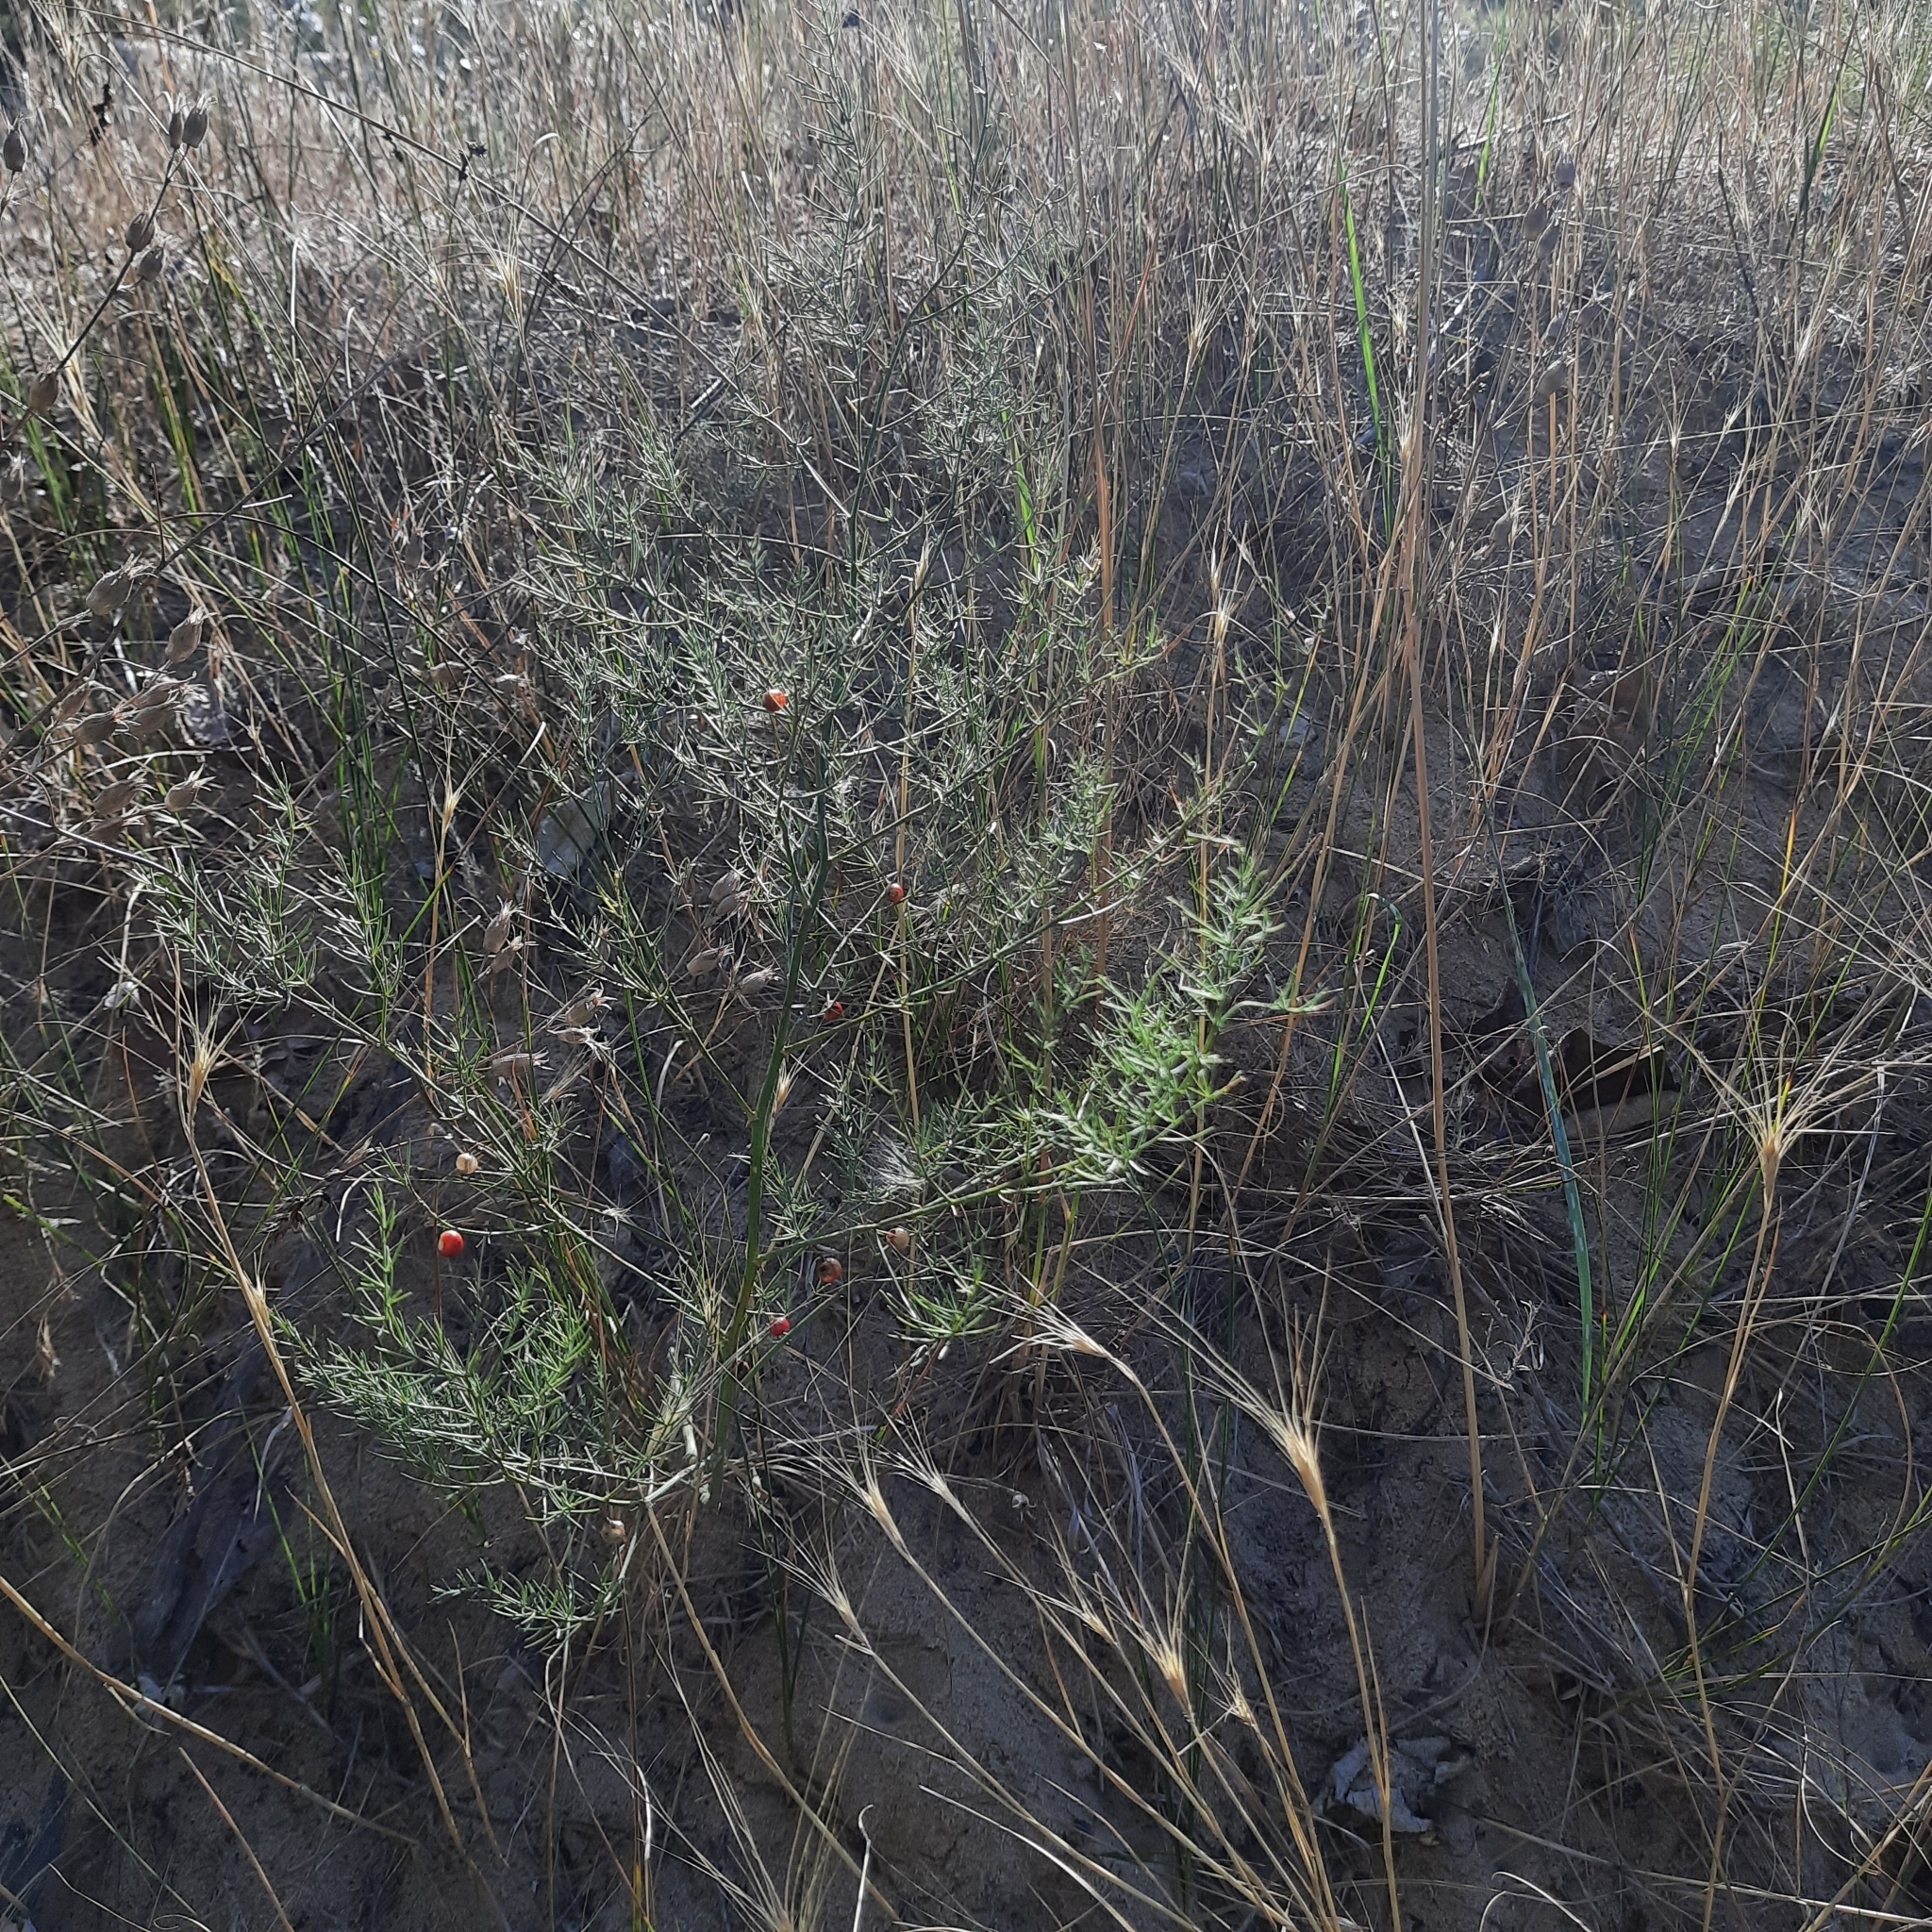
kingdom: Plantae
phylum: Tracheophyta
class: Liliopsida
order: Asparagales
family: Asparagaceae
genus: Asparagus
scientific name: Asparagus officinalis
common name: Garden asparagus
